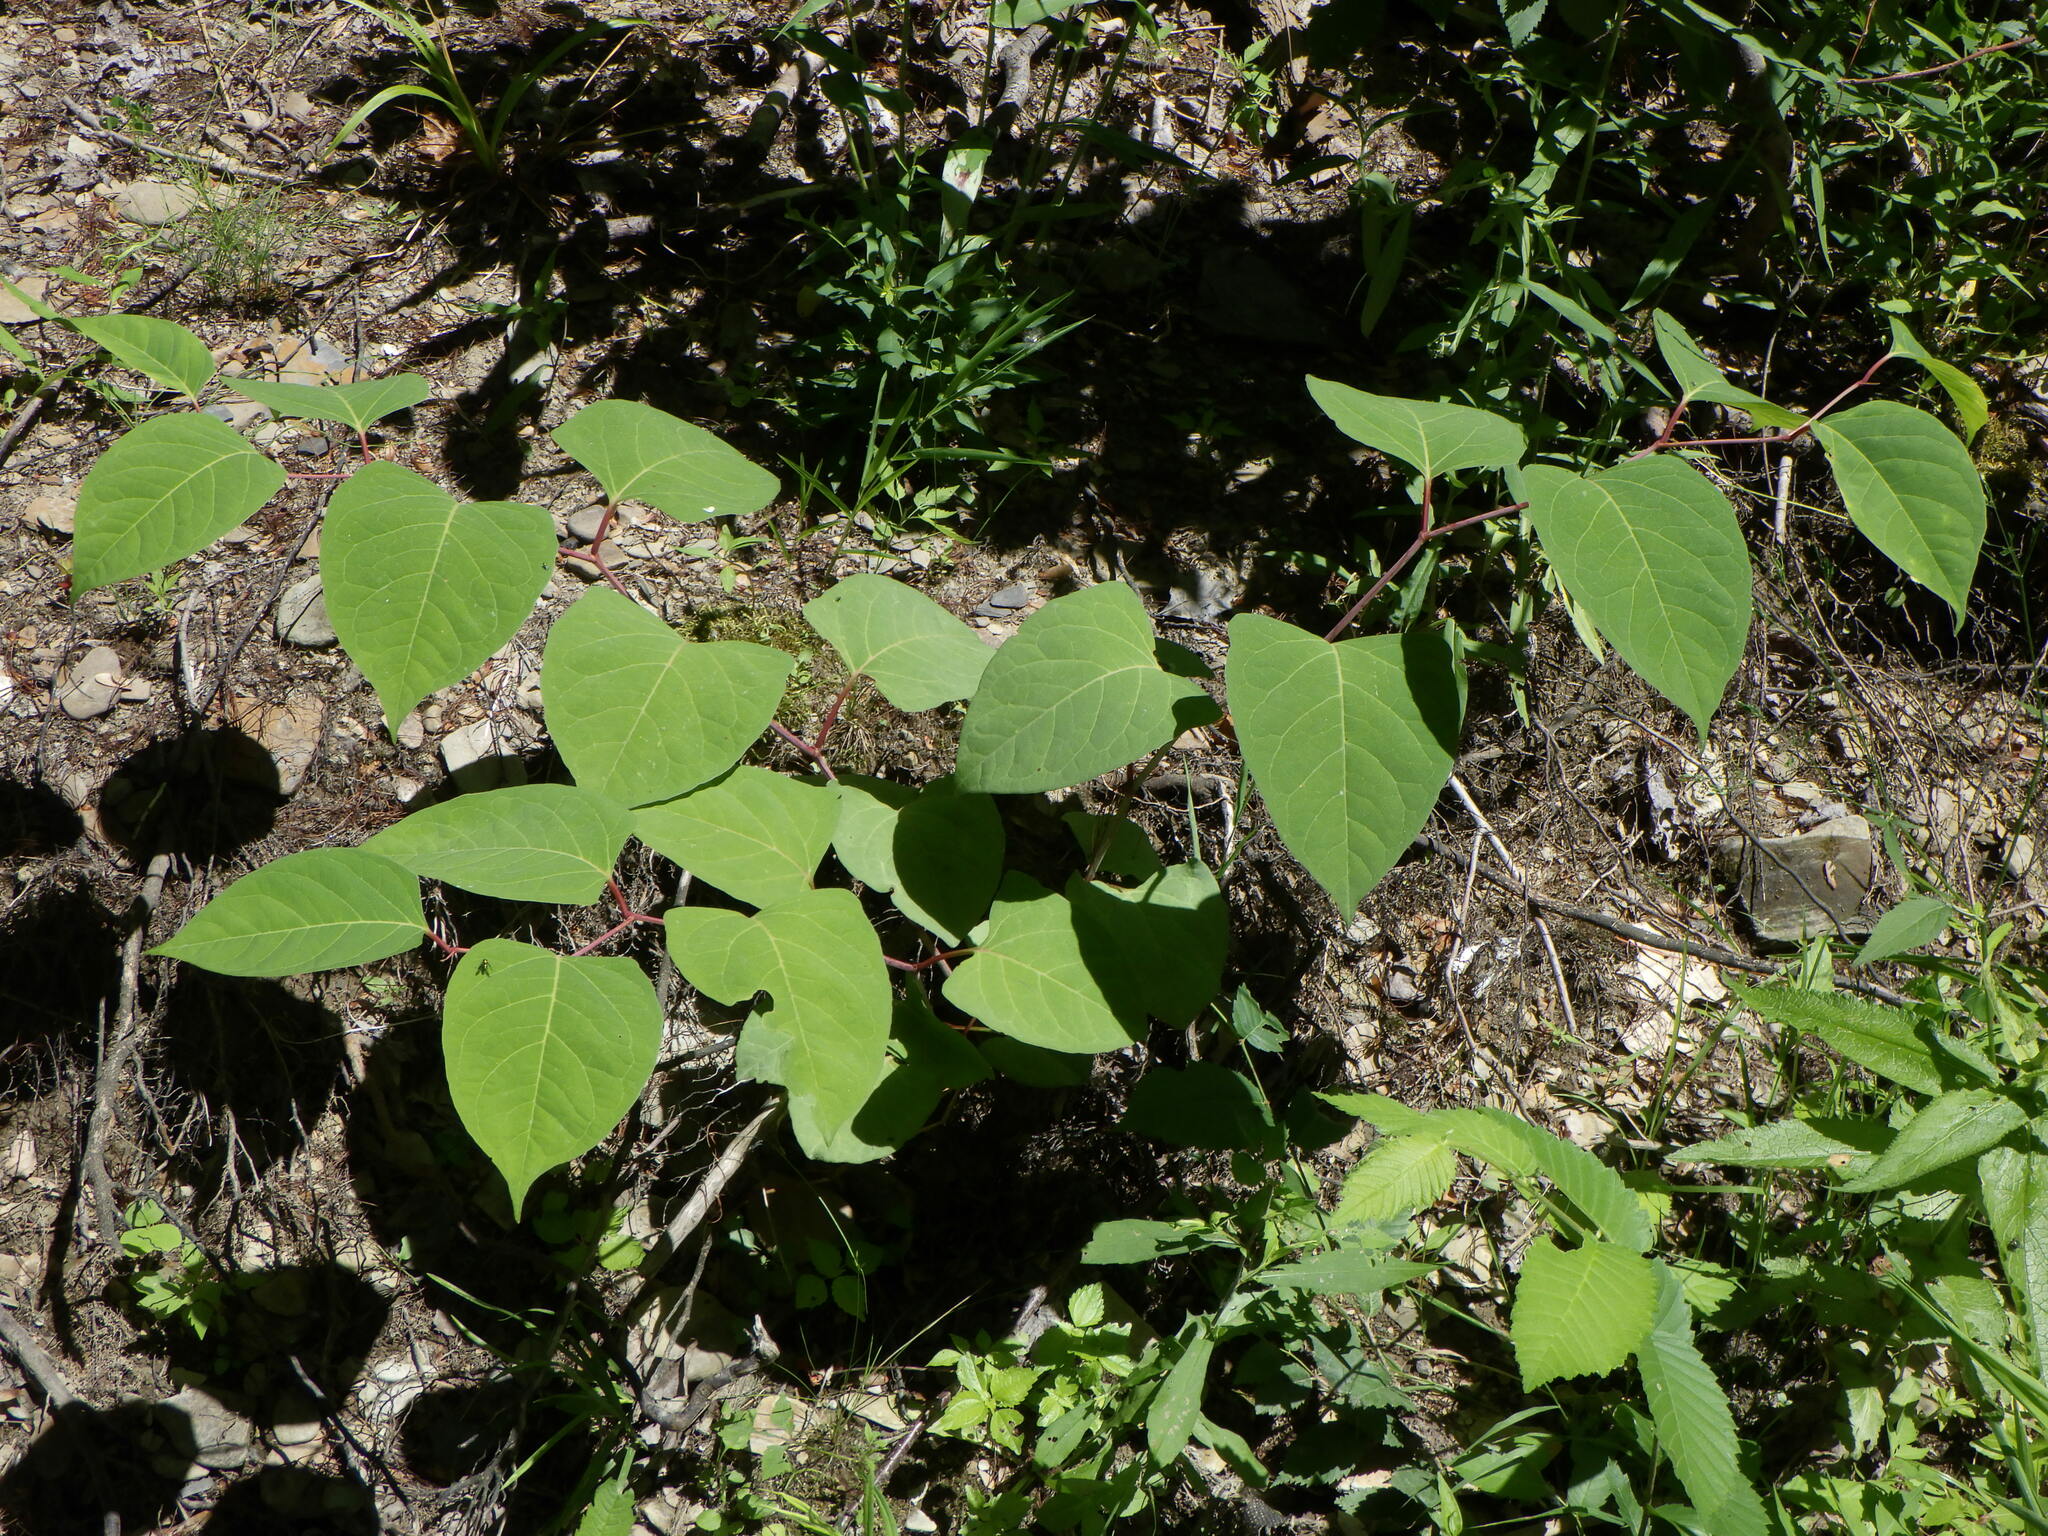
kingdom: Plantae
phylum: Tracheophyta
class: Magnoliopsida
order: Caryophyllales
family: Polygonaceae
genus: Reynoutria
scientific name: Reynoutria japonica
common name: Japanese knotweed
